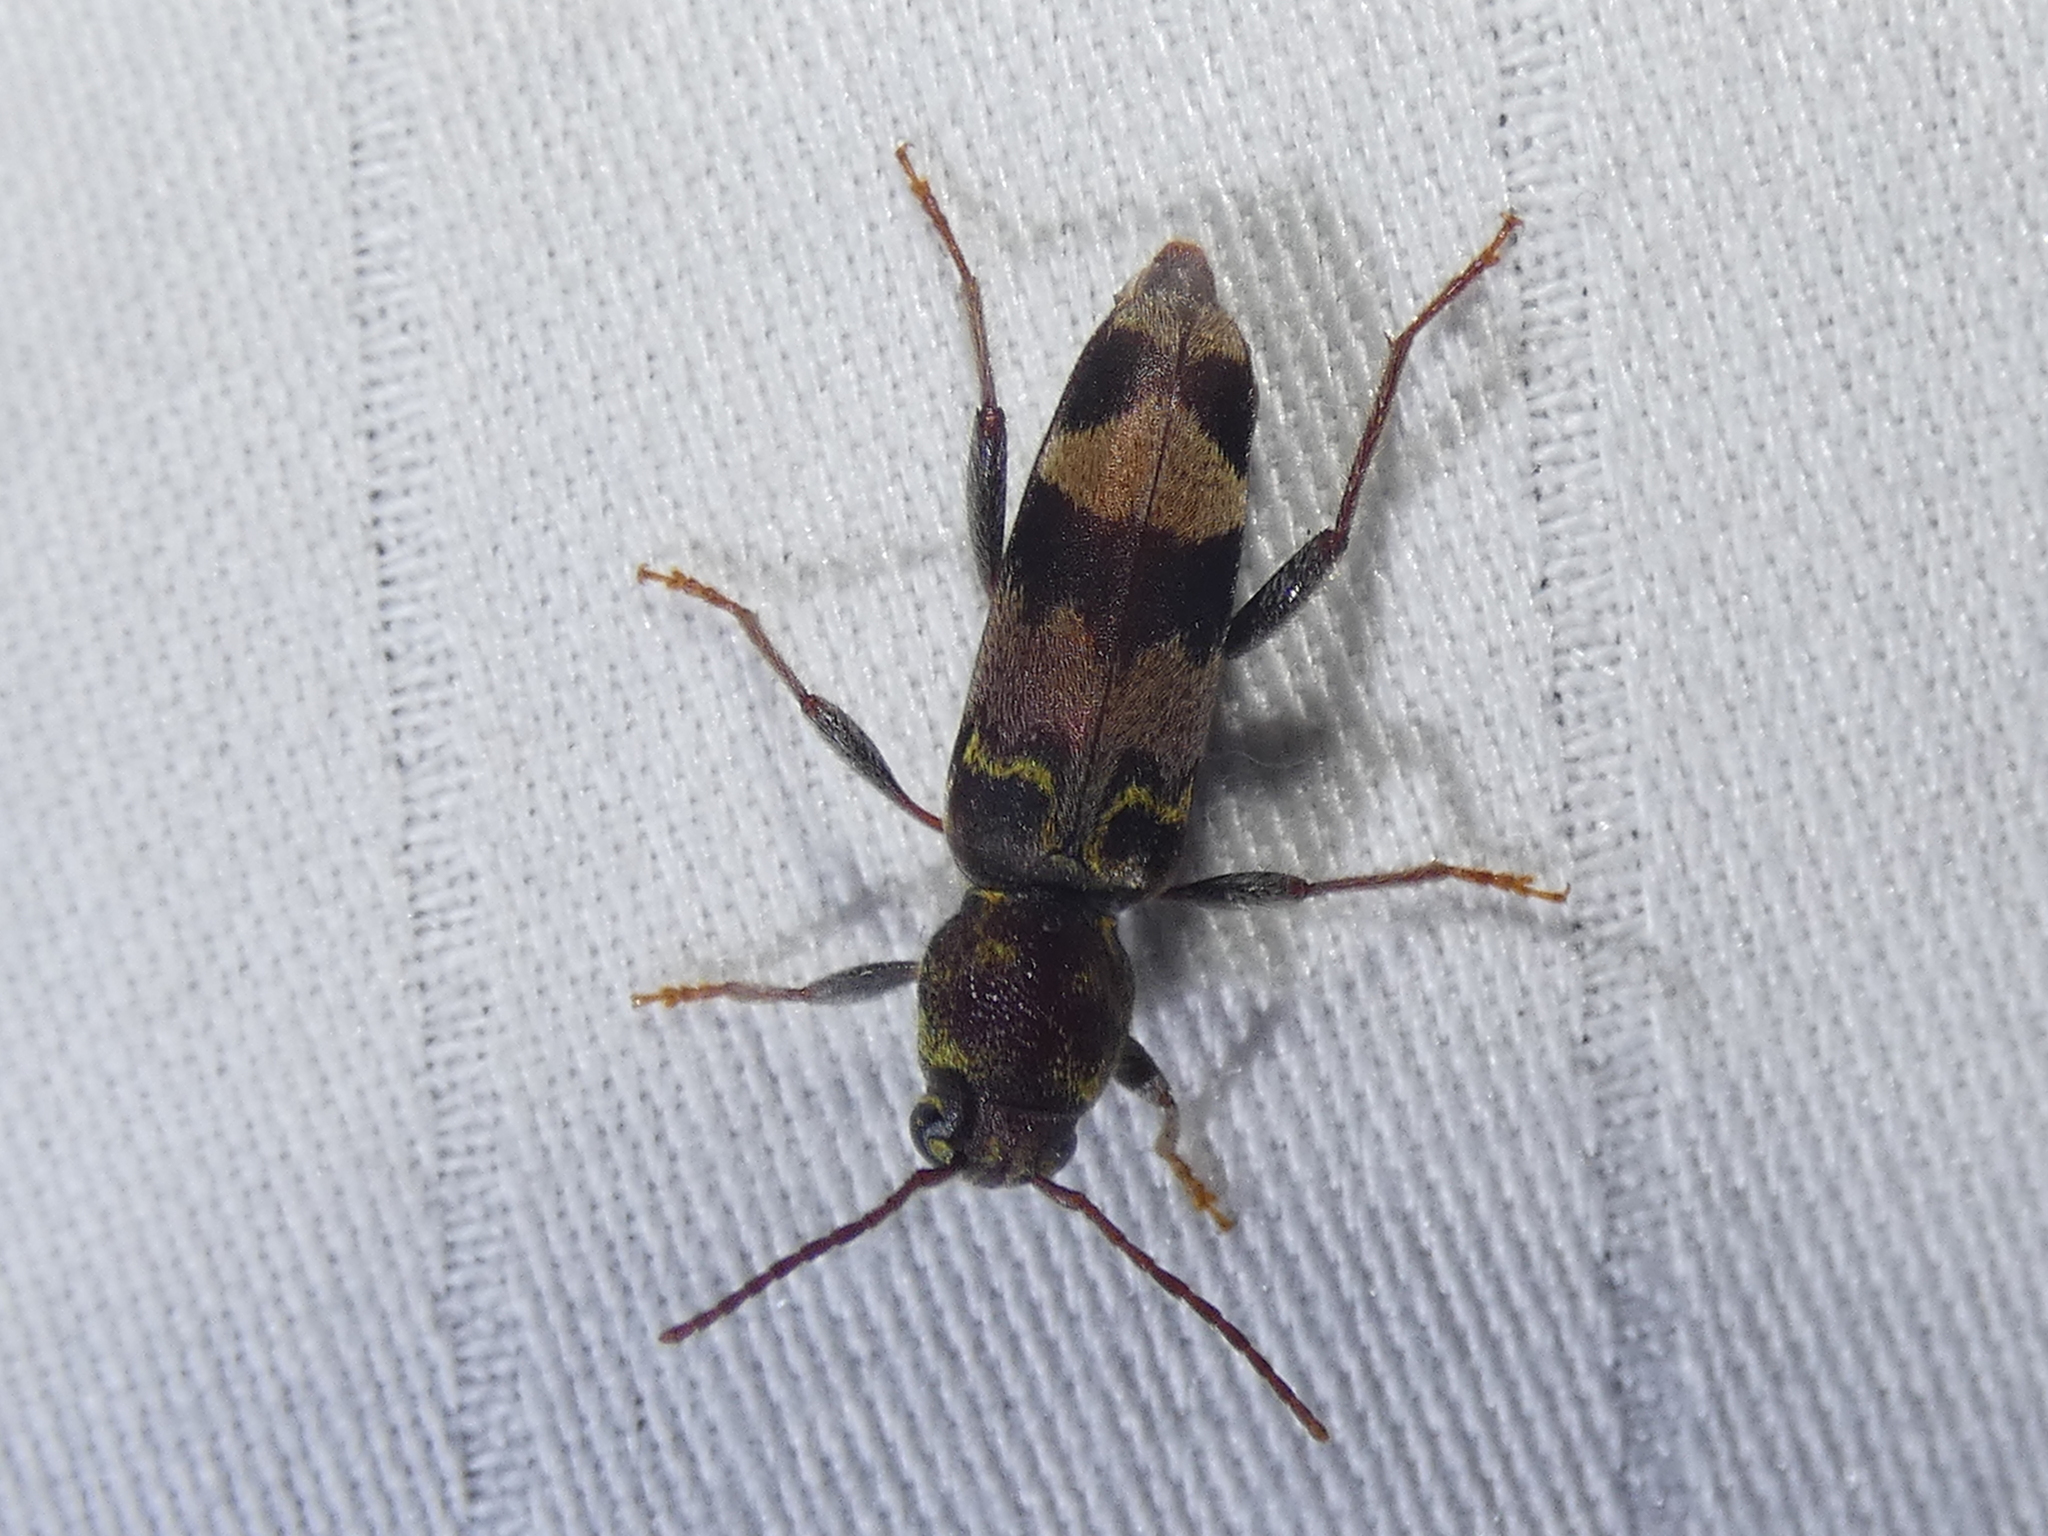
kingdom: Animalia
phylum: Arthropoda
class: Insecta
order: Coleoptera
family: Cerambycidae
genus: Xylotrechus
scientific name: Xylotrechus colonus
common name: Long-horned beetle
